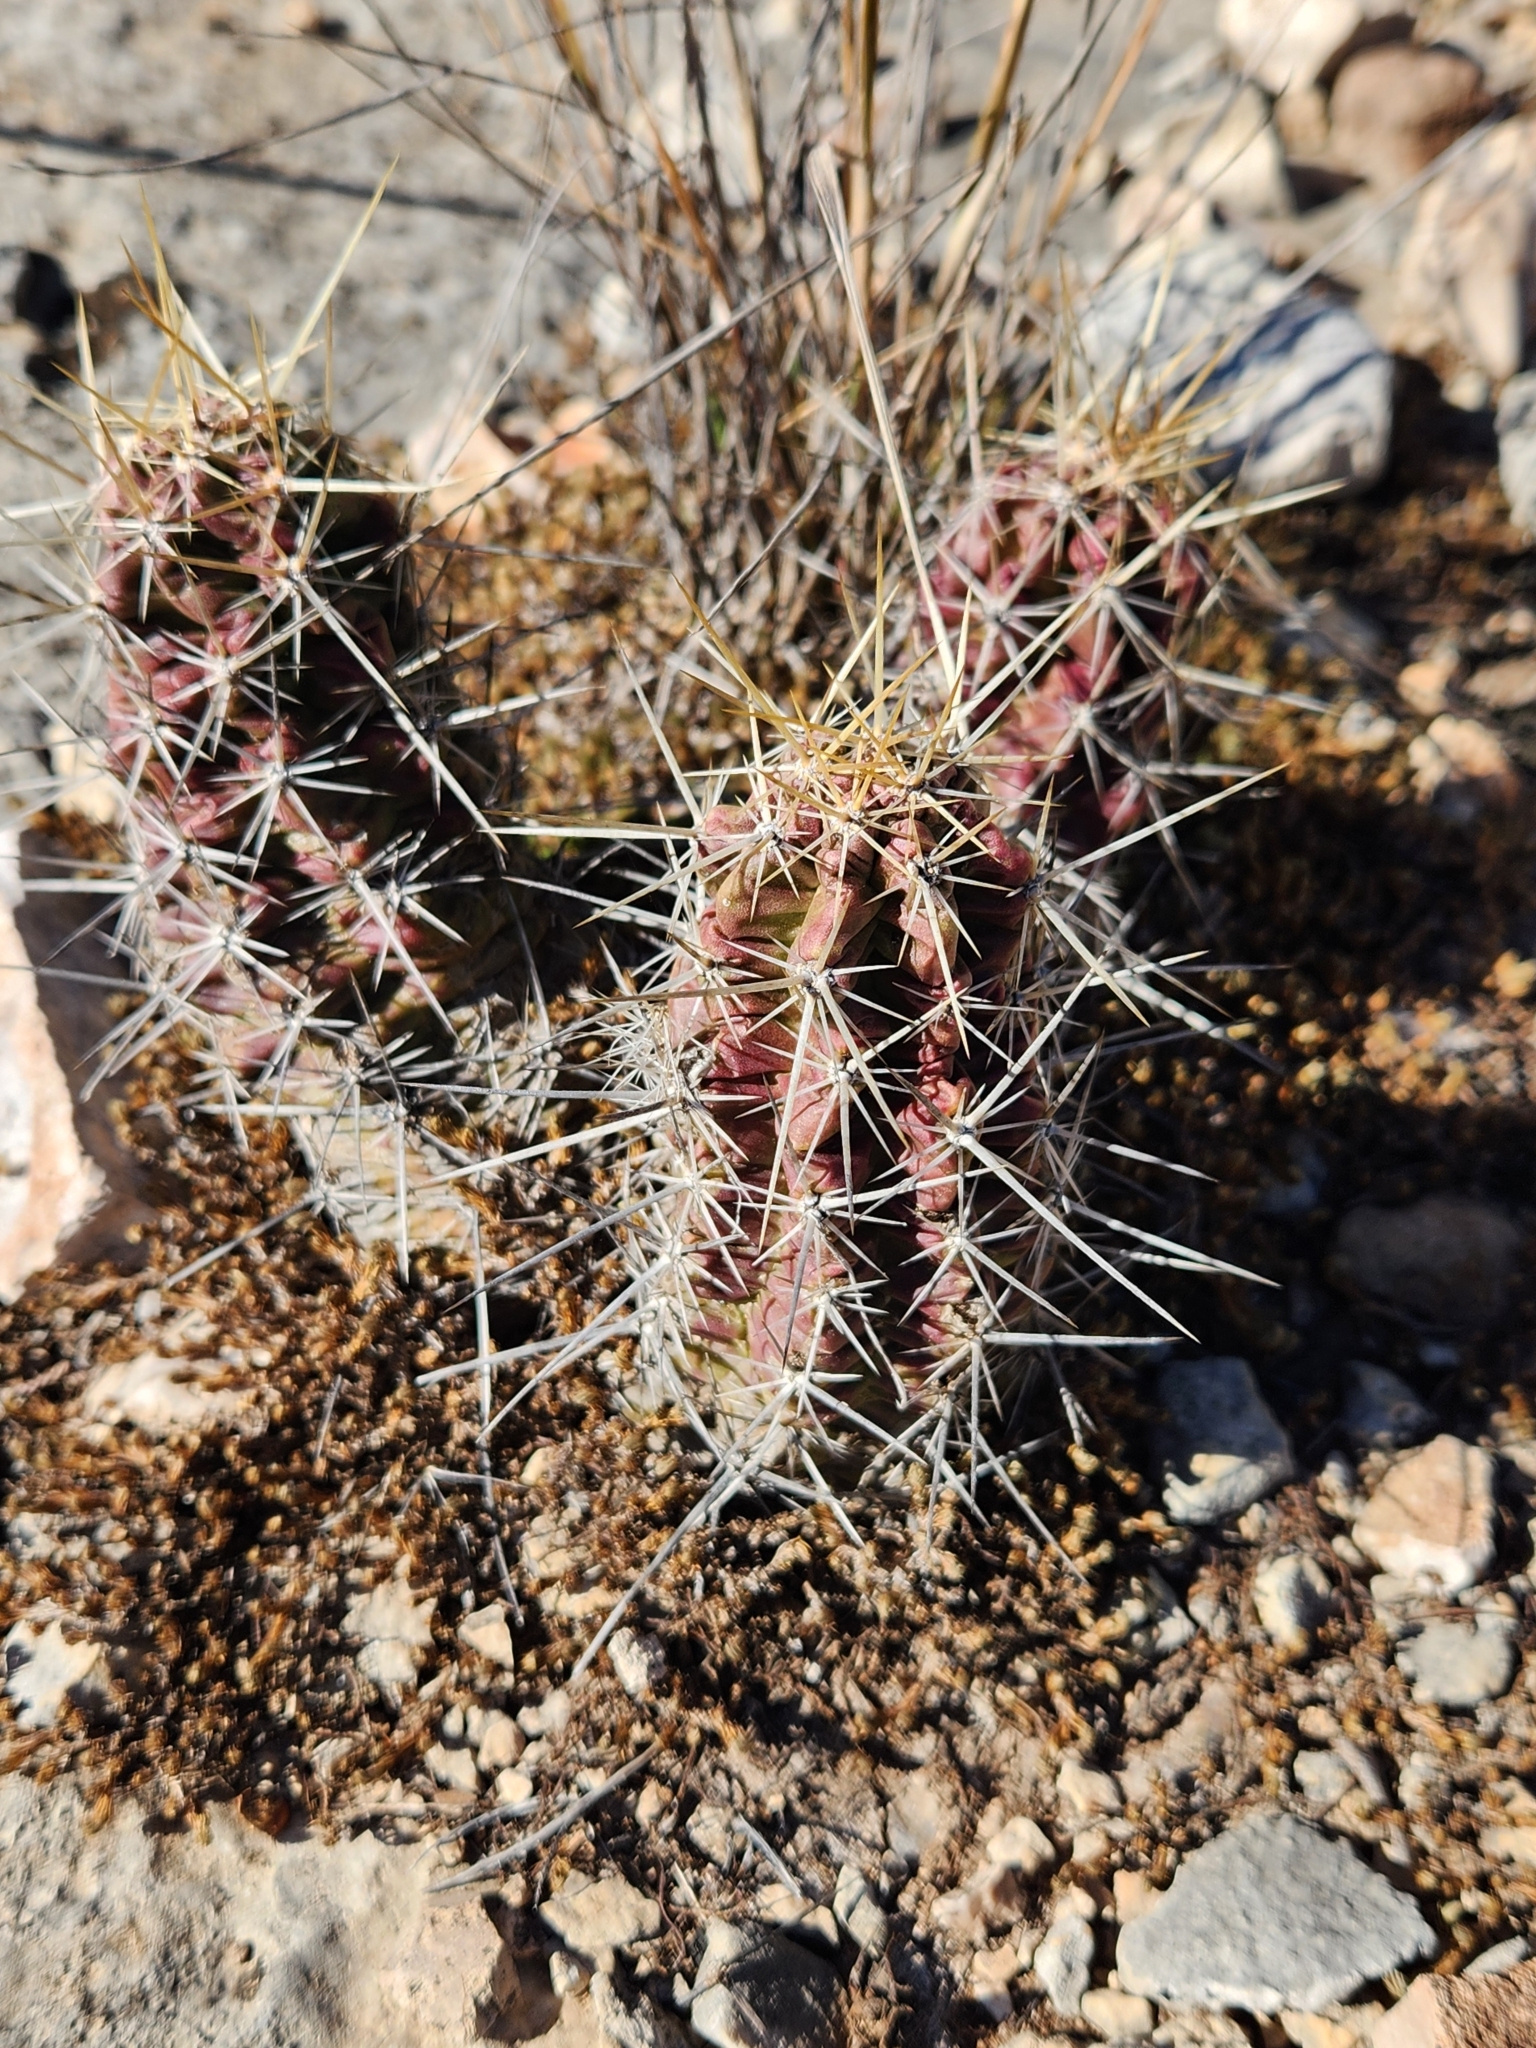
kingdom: Plantae
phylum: Tracheophyta
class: Magnoliopsida
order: Caryophyllales
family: Cactaceae
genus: Echinocereus
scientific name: Echinocereus enneacanthus
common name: Pitaya
